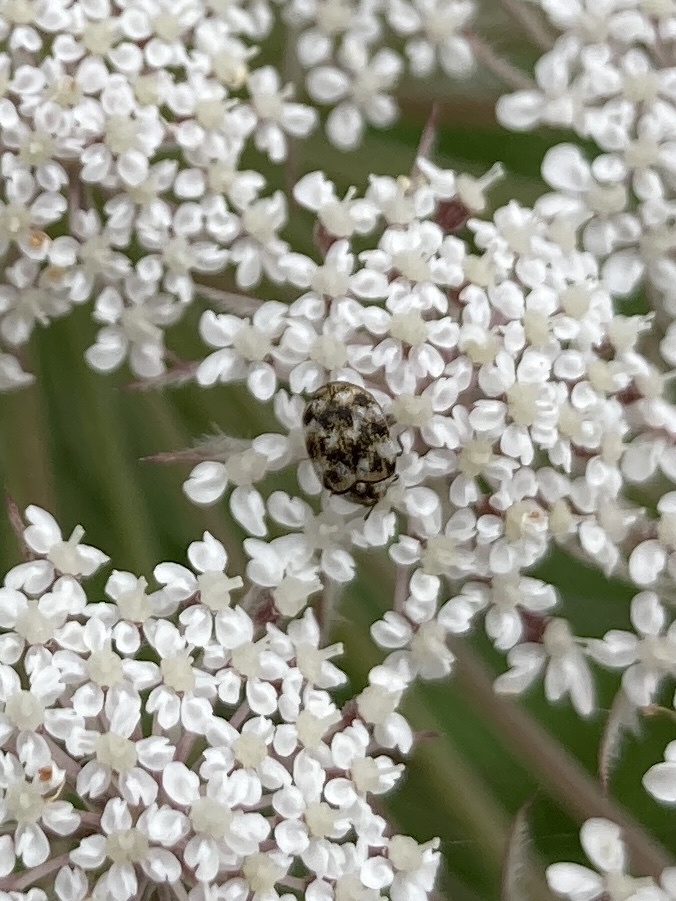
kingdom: Animalia
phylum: Arthropoda
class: Insecta
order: Coleoptera
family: Dermestidae
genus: Anthrenus
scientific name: Anthrenus verbasci
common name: Varied carpet beetle
